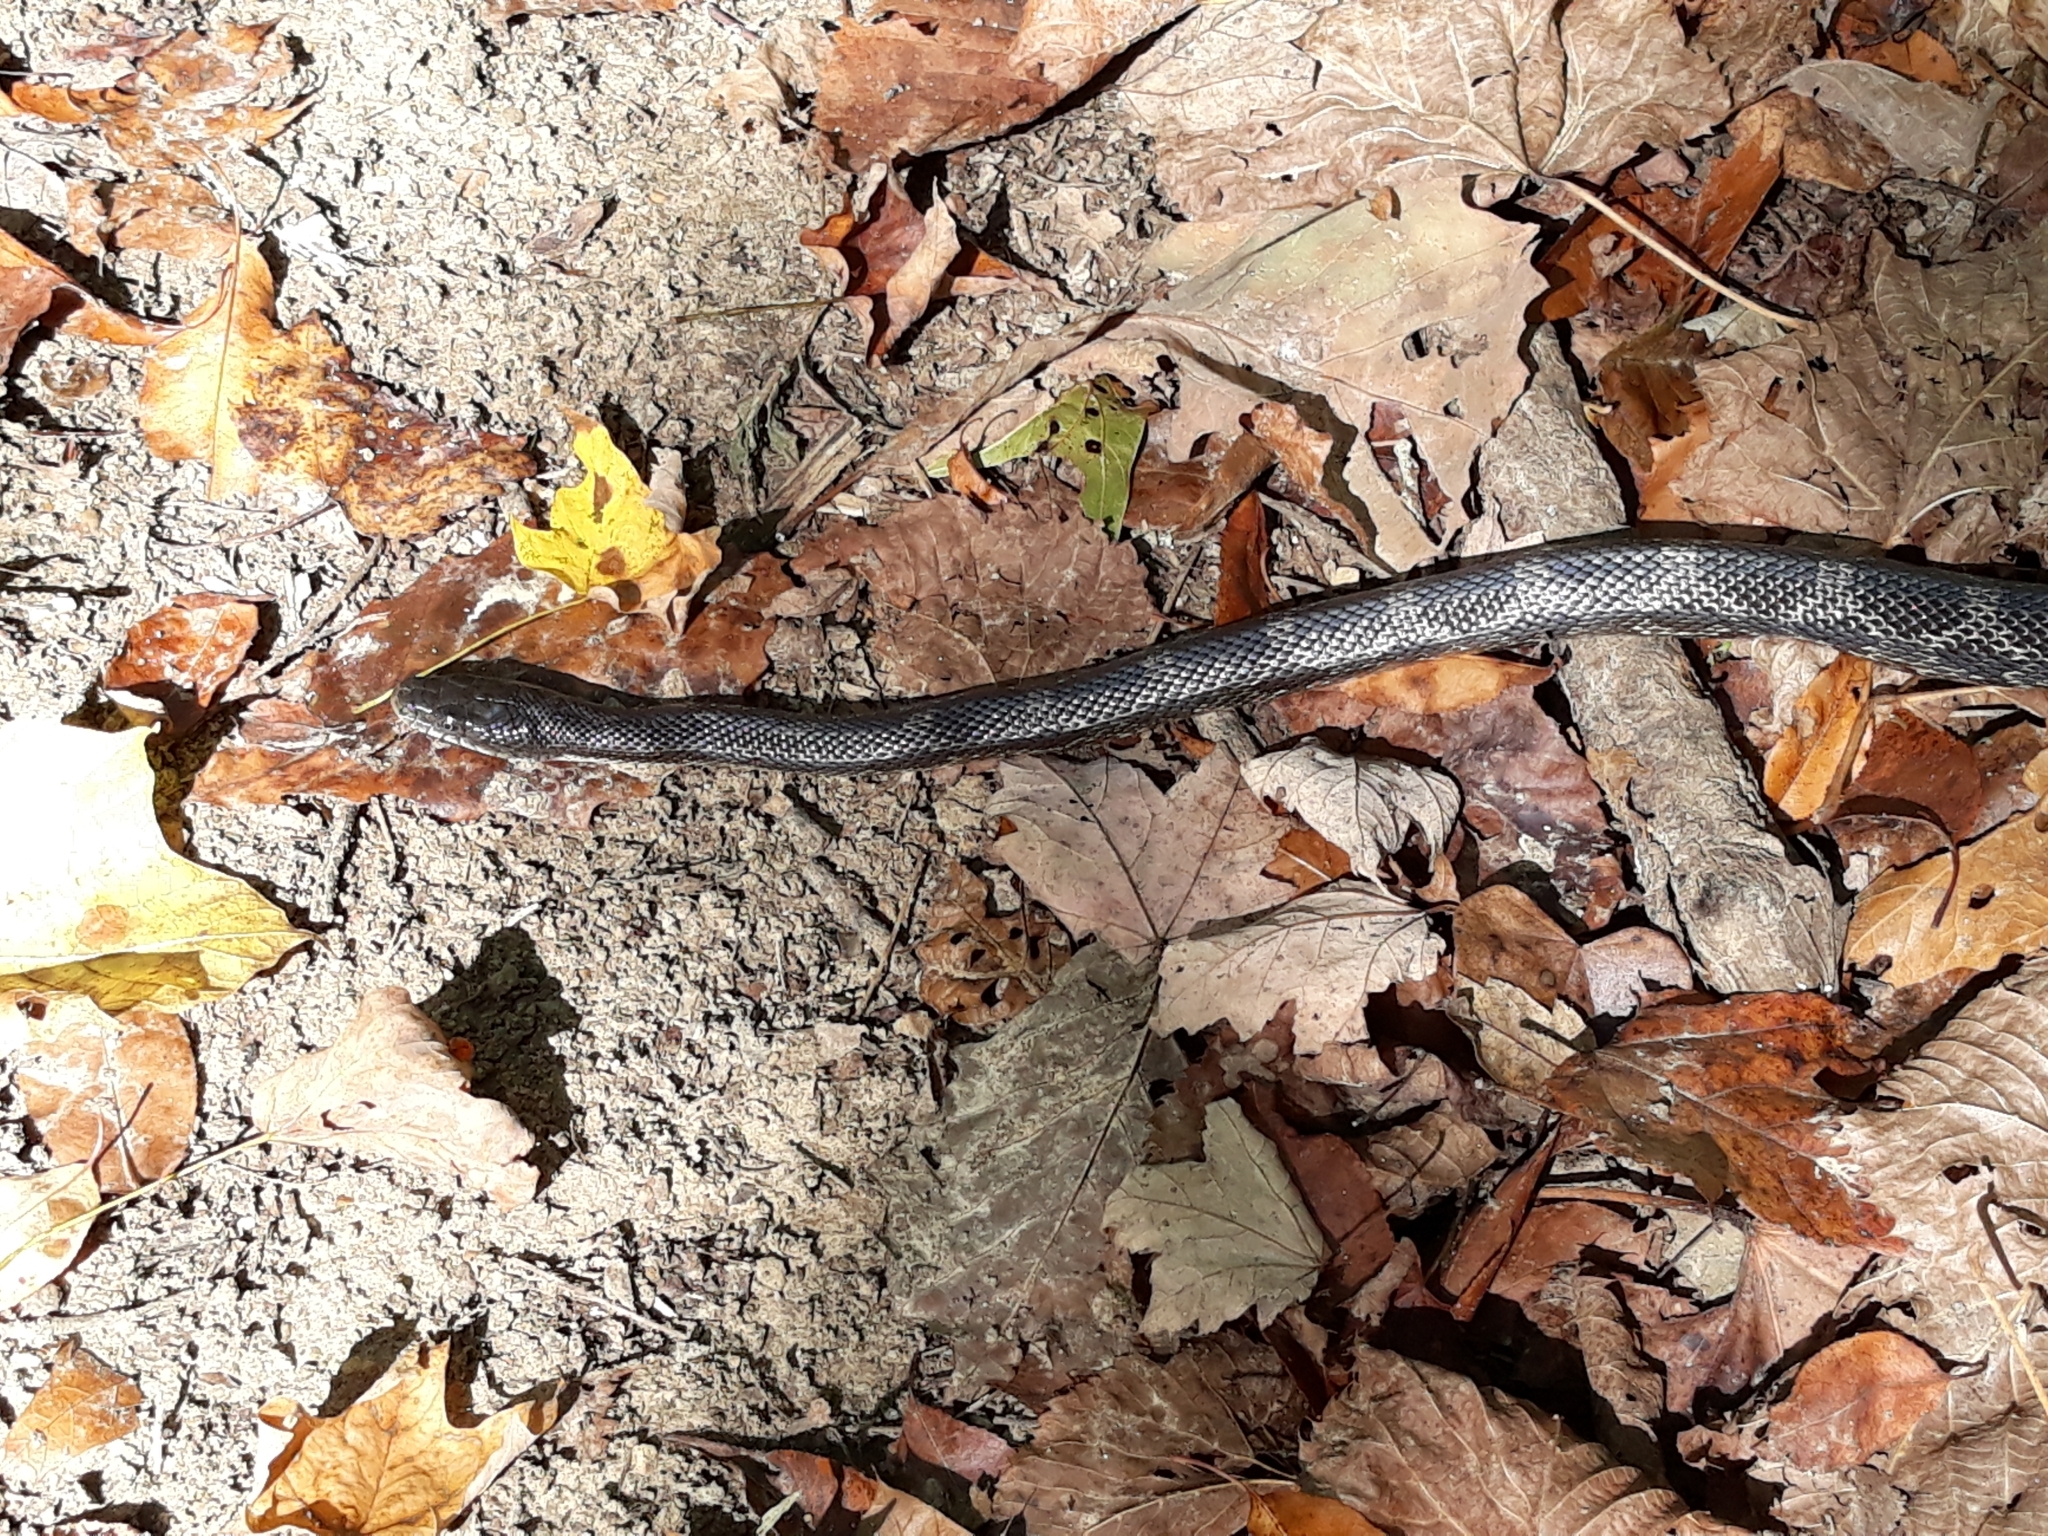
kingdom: Animalia
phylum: Chordata
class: Squamata
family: Colubridae
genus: Pantherophis
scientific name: Pantherophis spiloides
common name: Gray rat snake
